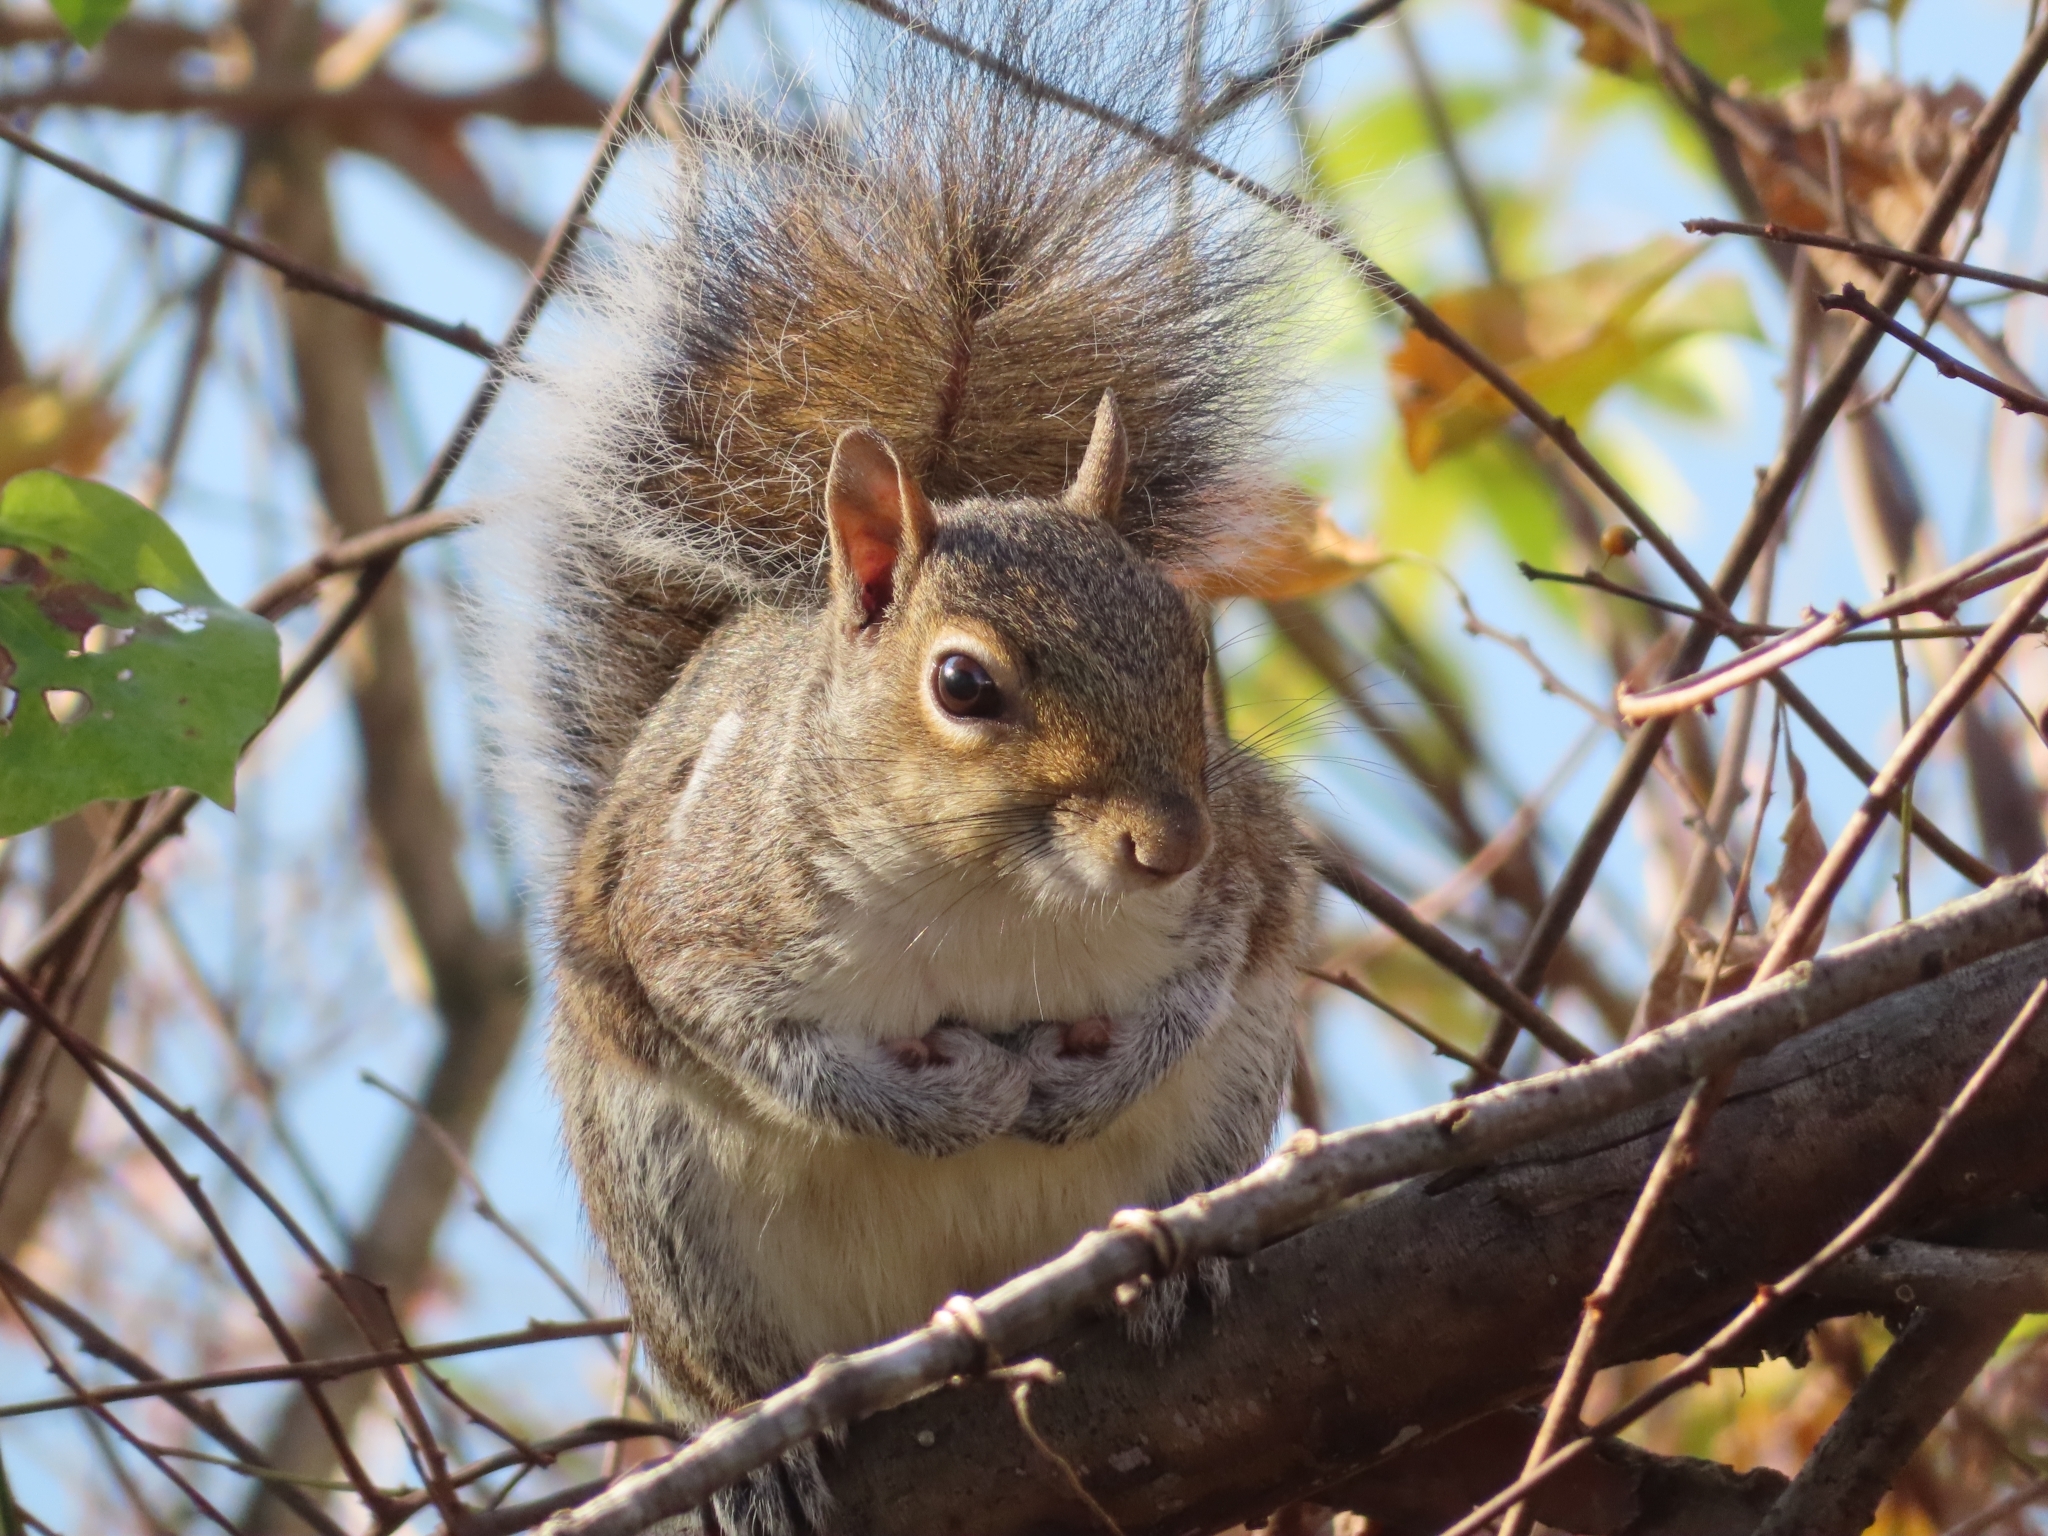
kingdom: Animalia
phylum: Chordata
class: Mammalia
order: Rodentia
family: Sciuridae
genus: Sciurus
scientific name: Sciurus carolinensis
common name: Eastern gray squirrel
